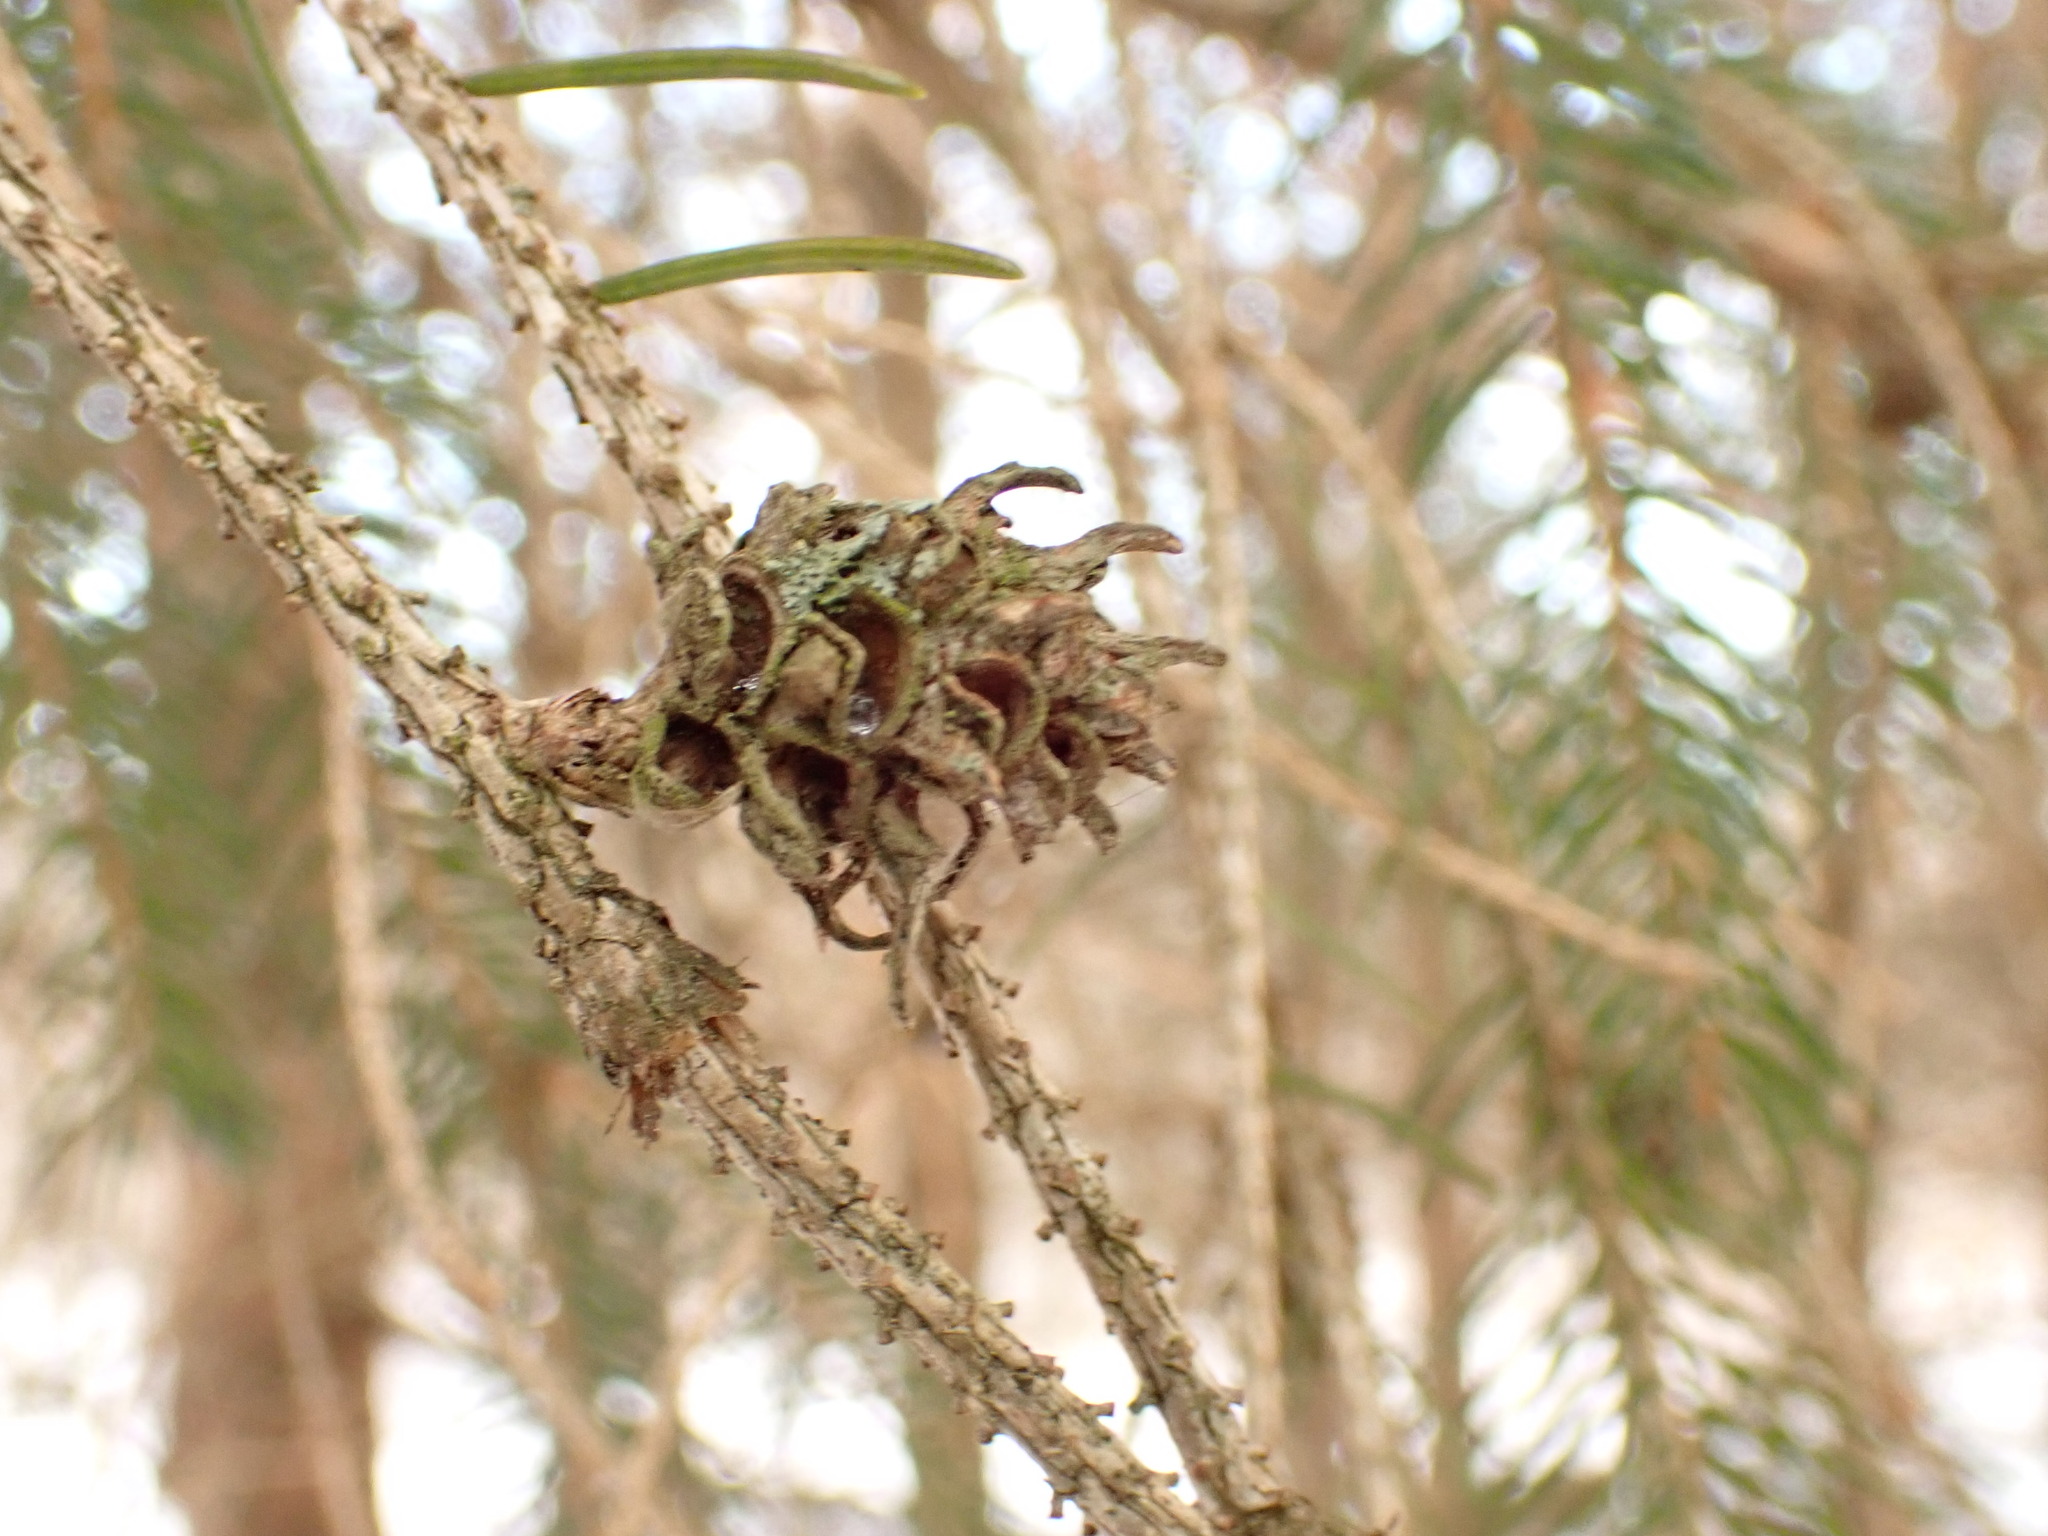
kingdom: Animalia
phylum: Arthropoda
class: Insecta
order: Hemiptera
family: Adelgidae
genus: Adelges
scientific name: Adelges abietis
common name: Eastern spruce gall adelgid
